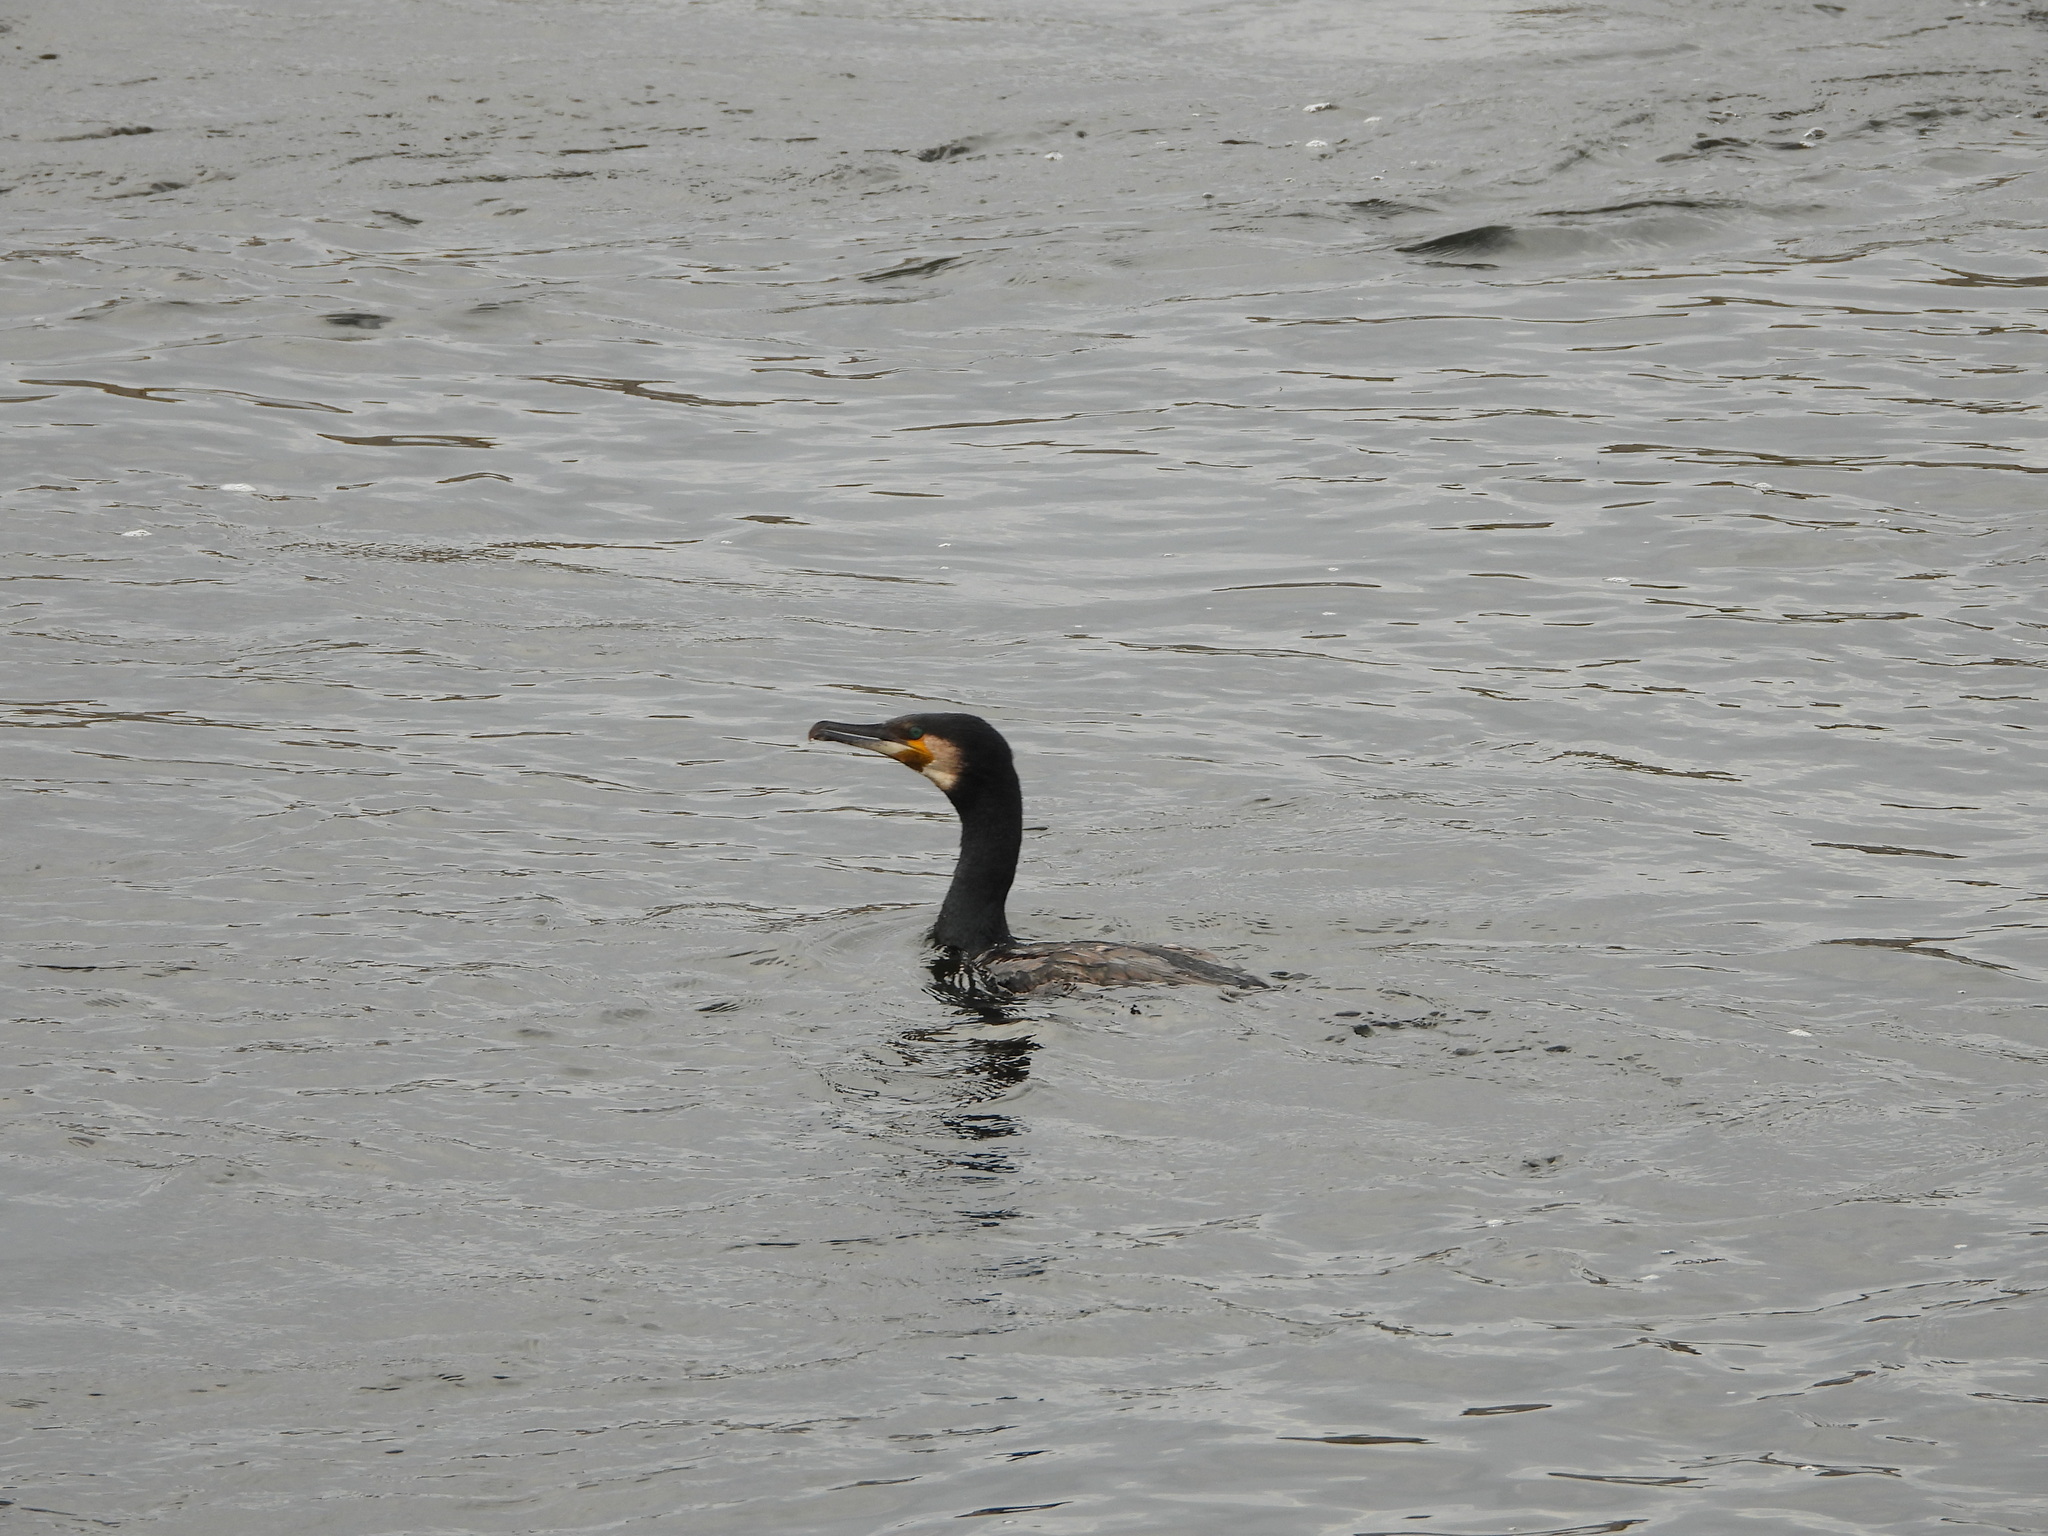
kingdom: Animalia
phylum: Chordata
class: Aves
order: Suliformes
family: Phalacrocoracidae
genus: Phalacrocorax
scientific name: Phalacrocorax carbo
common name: Great cormorant
